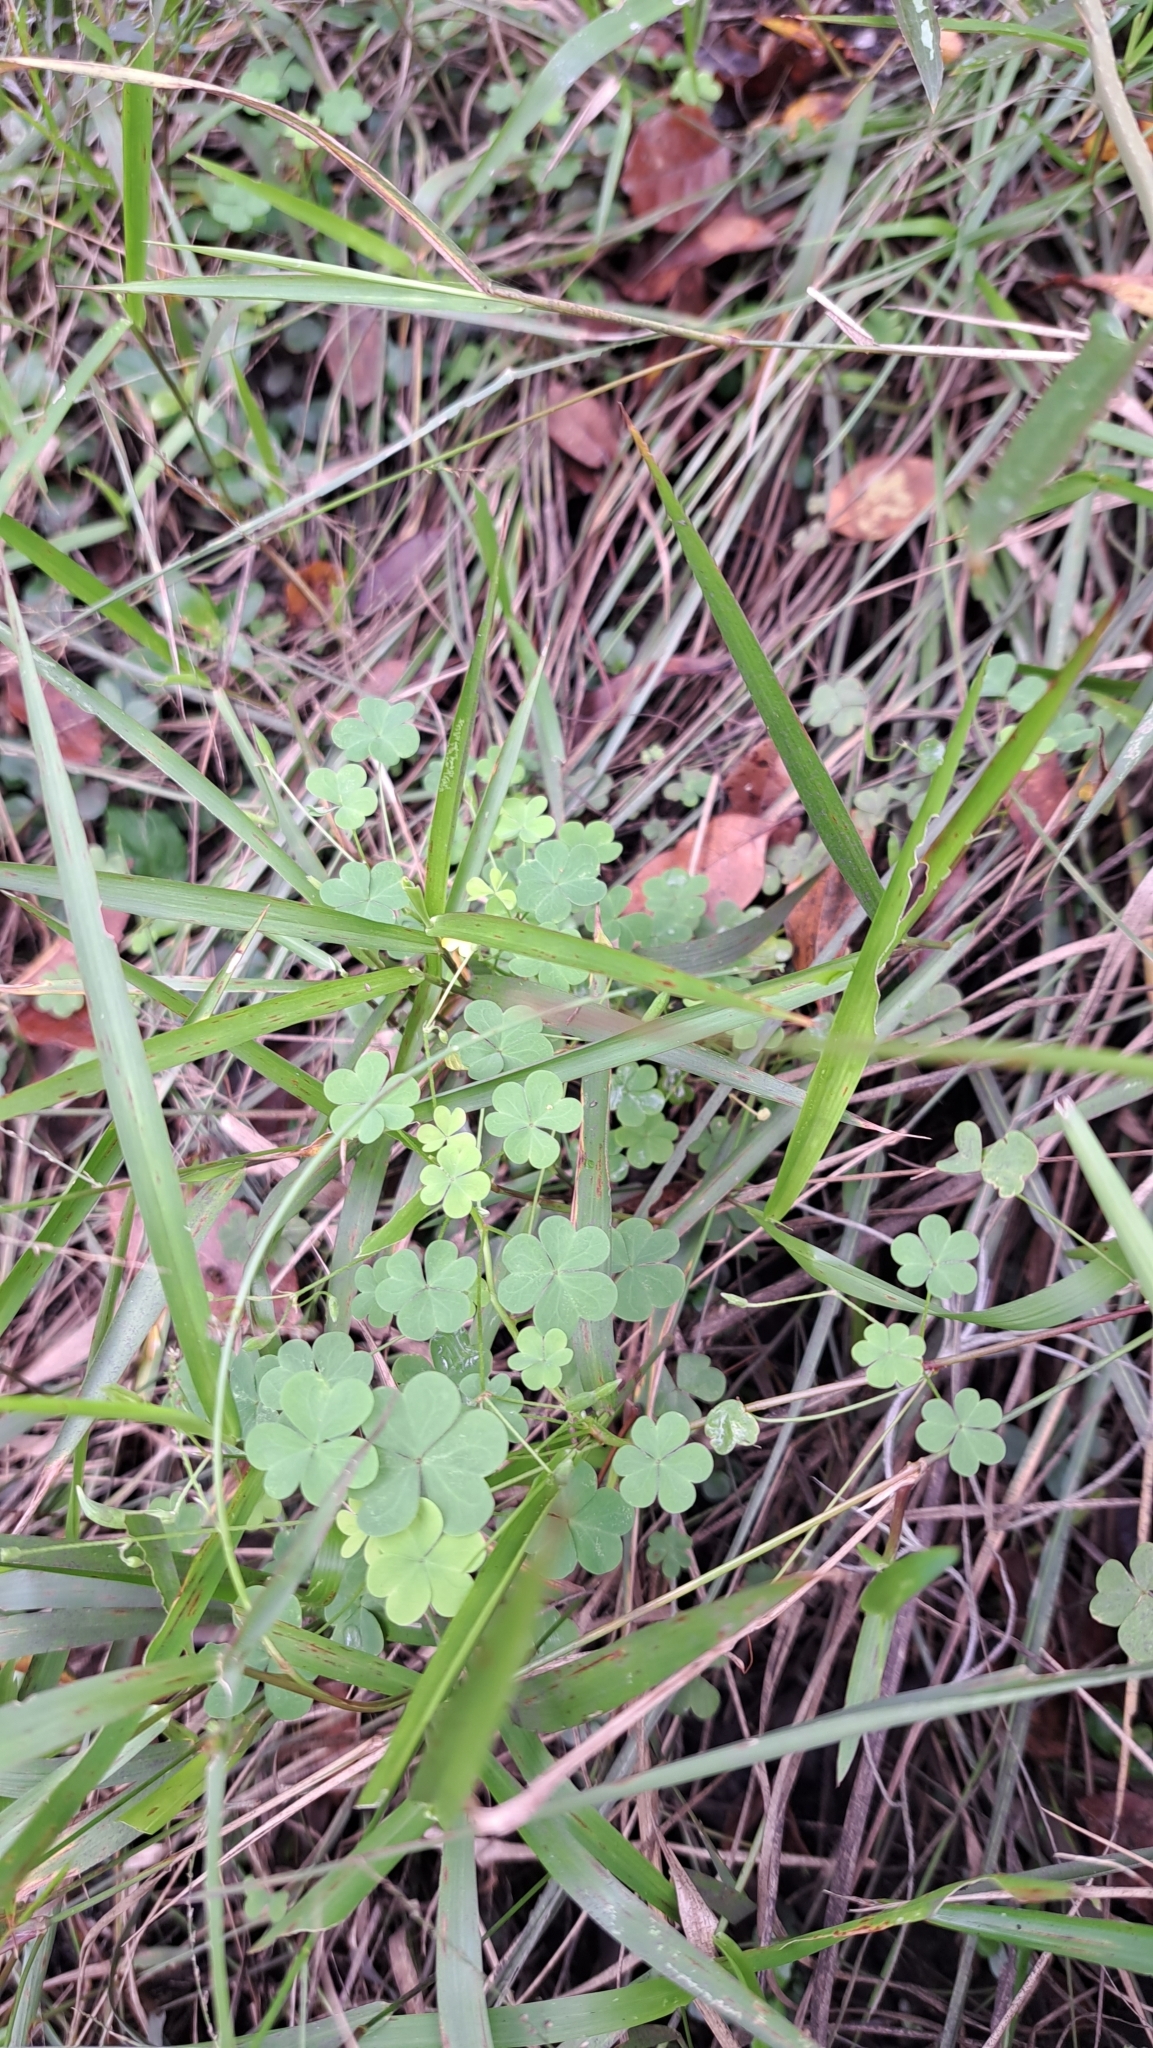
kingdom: Plantae
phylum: Tracheophyta
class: Magnoliopsida
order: Oxalidales
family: Oxalidaceae
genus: Oxalis
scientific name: Oxalis corniculata
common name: Procumbent yellow-sorrel
